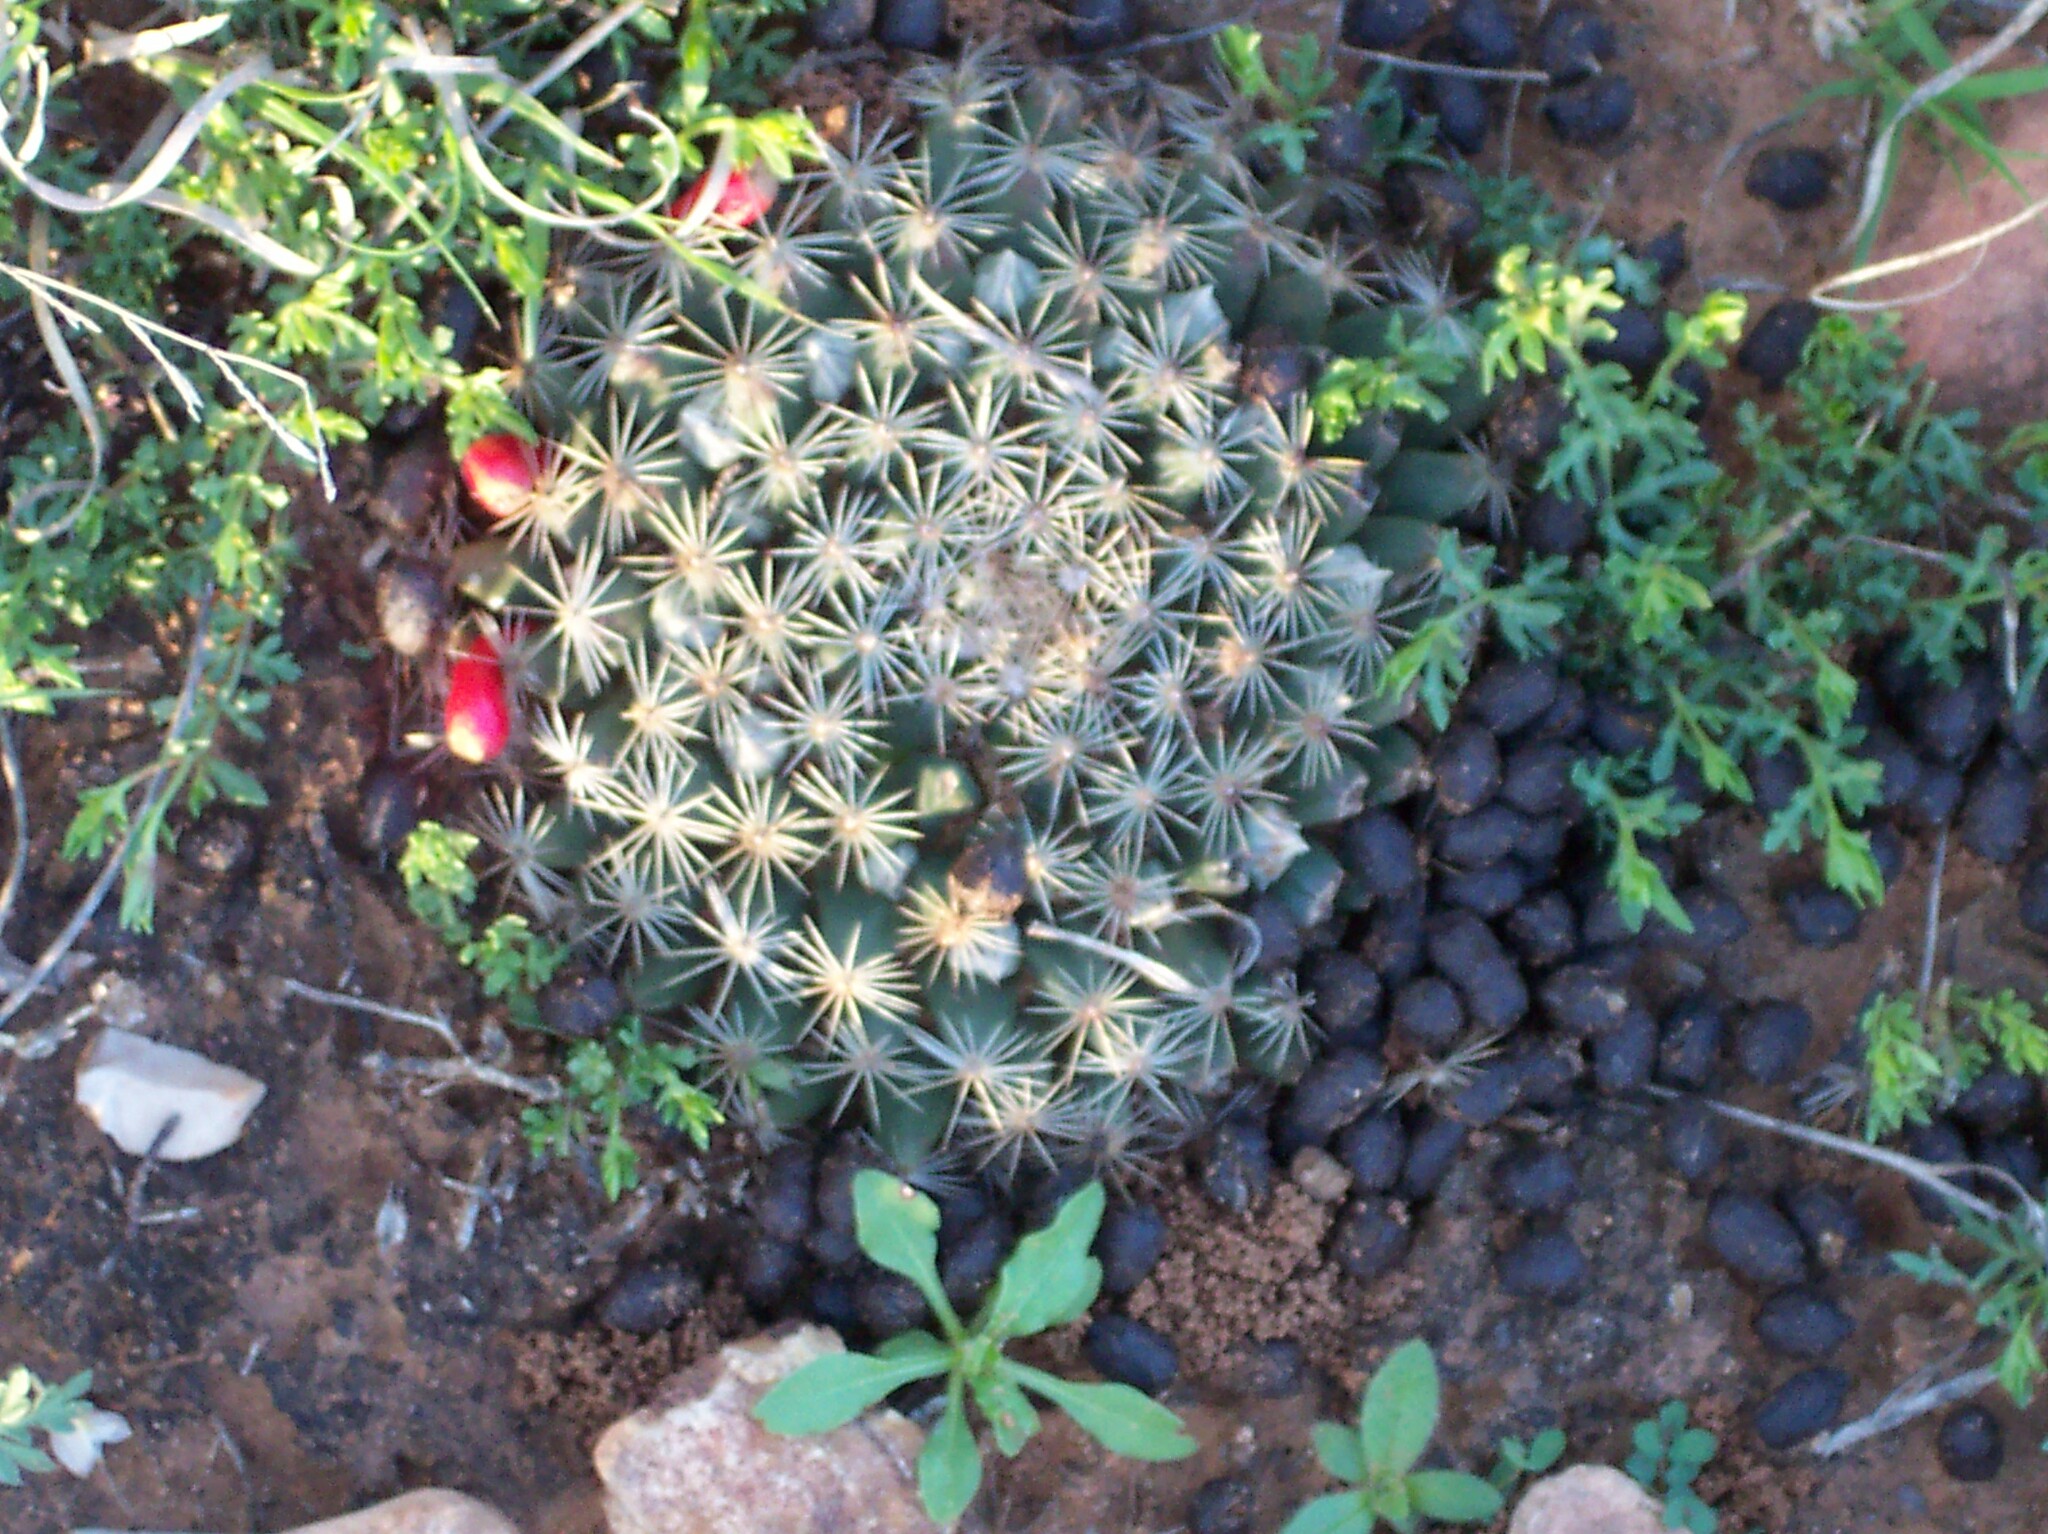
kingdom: Plantae
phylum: Tracheophyta
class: Magnoliopsida
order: Caryophyllales
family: Cactaceae
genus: Mammillaria
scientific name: Mammillaria heyderi
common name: Little nipple cactus
